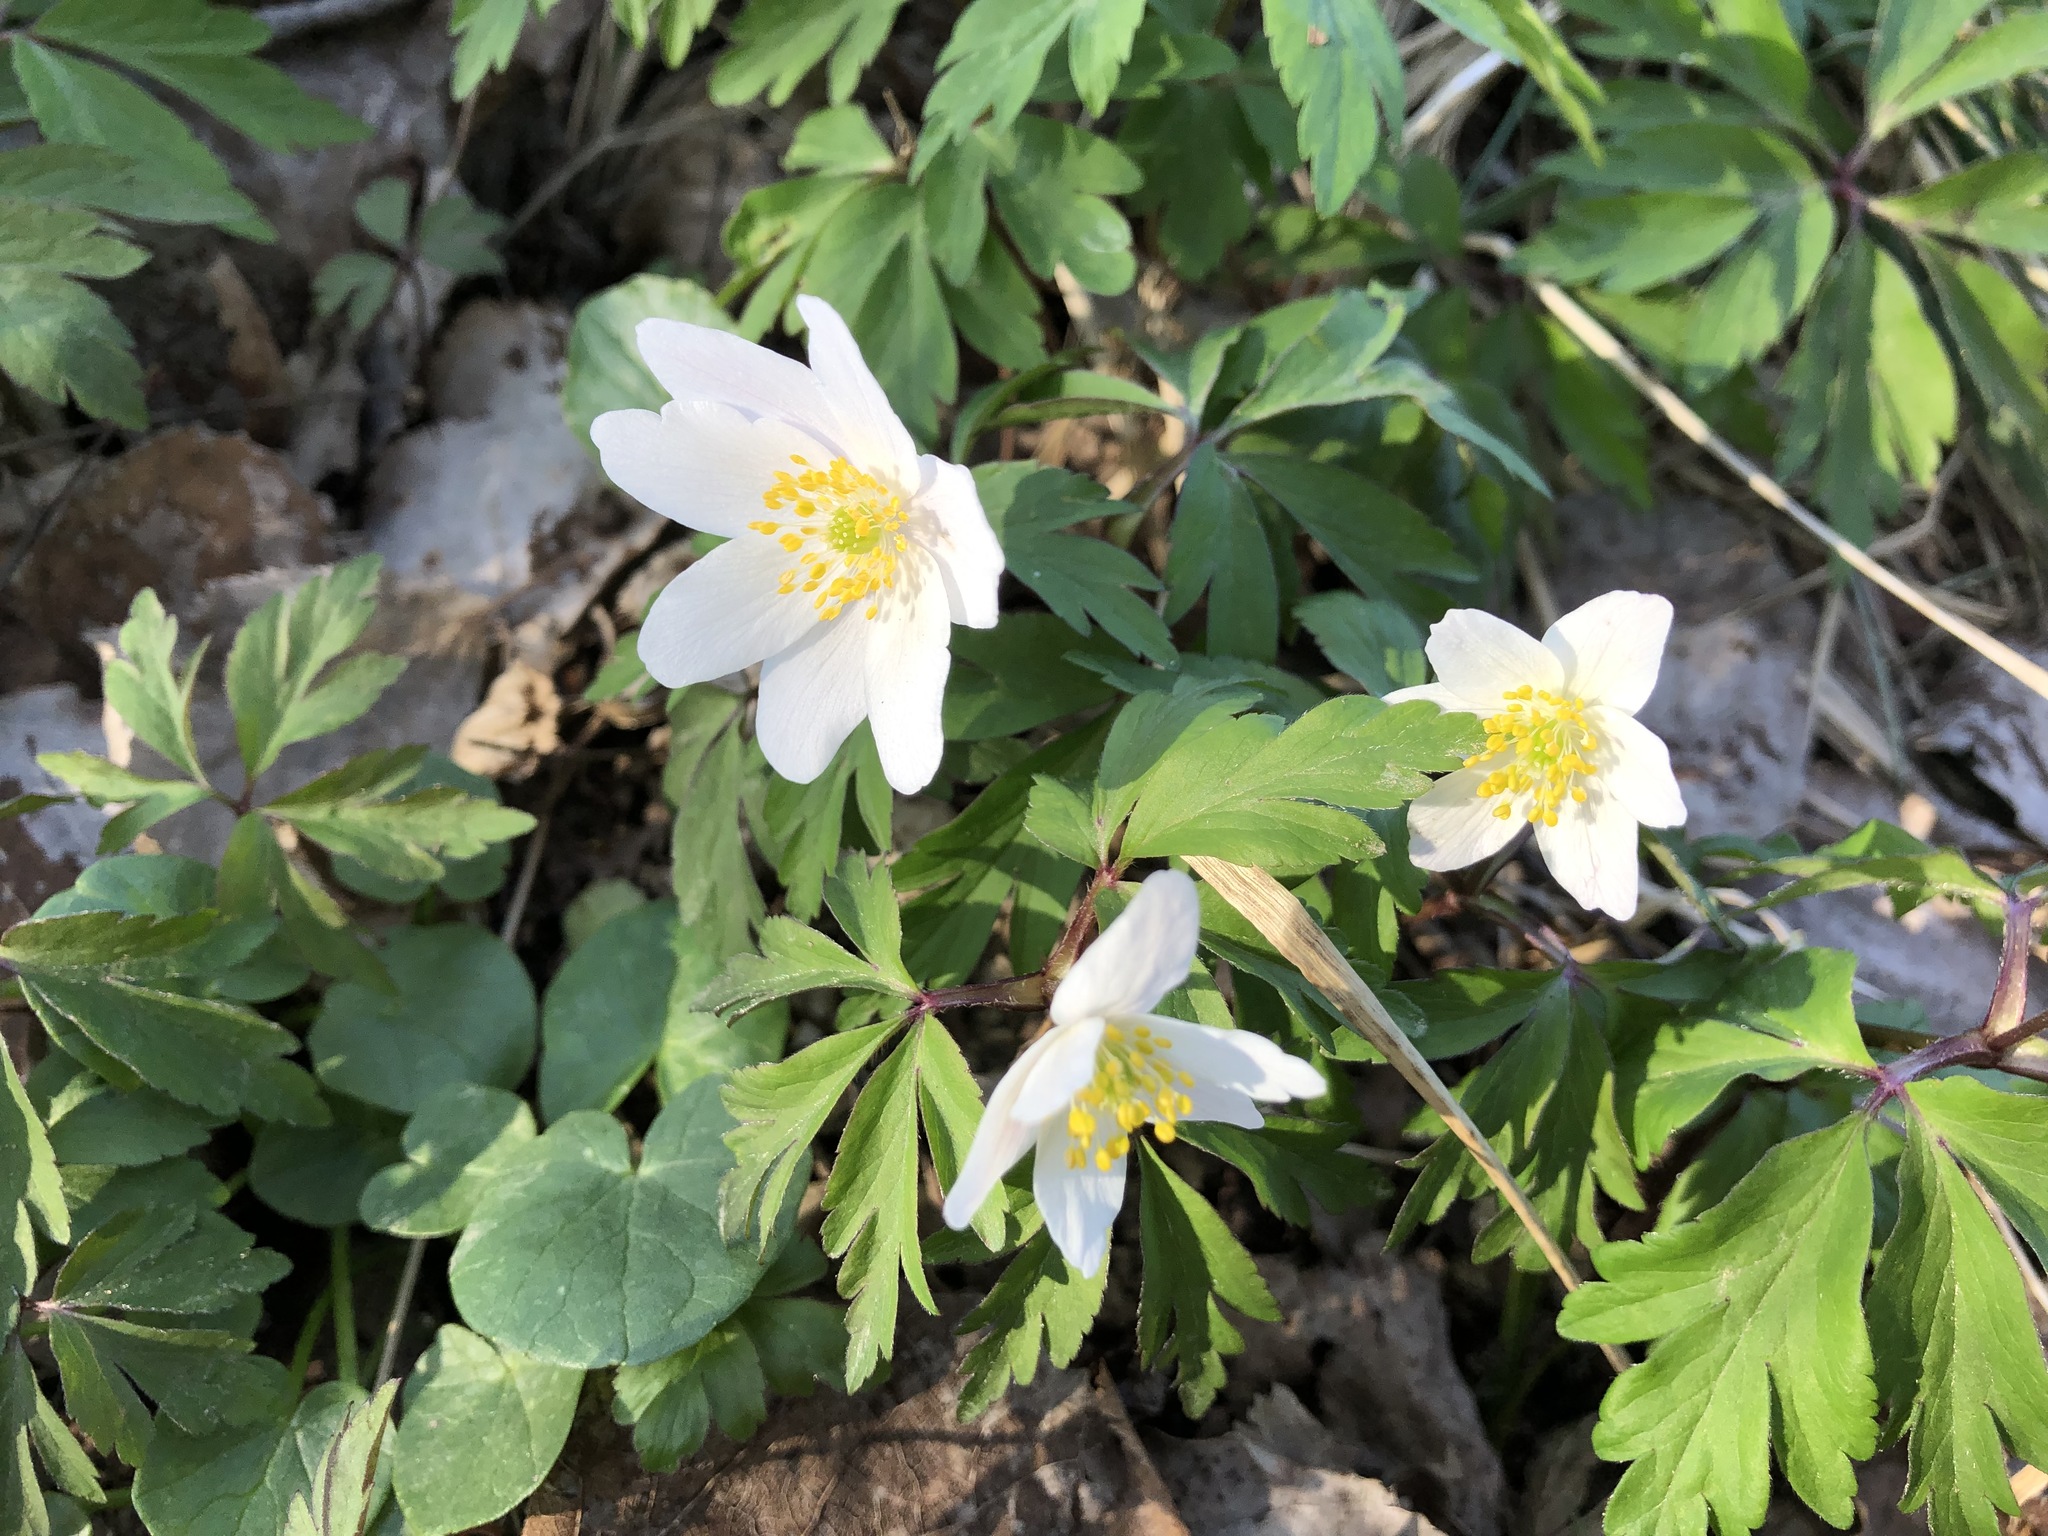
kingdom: Plantae
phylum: Tracheophyta
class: Magnoliopsida
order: Ranunculales
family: Ranunculaceae
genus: Anemone
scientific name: Anemone nemorosa
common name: Wood anemone
